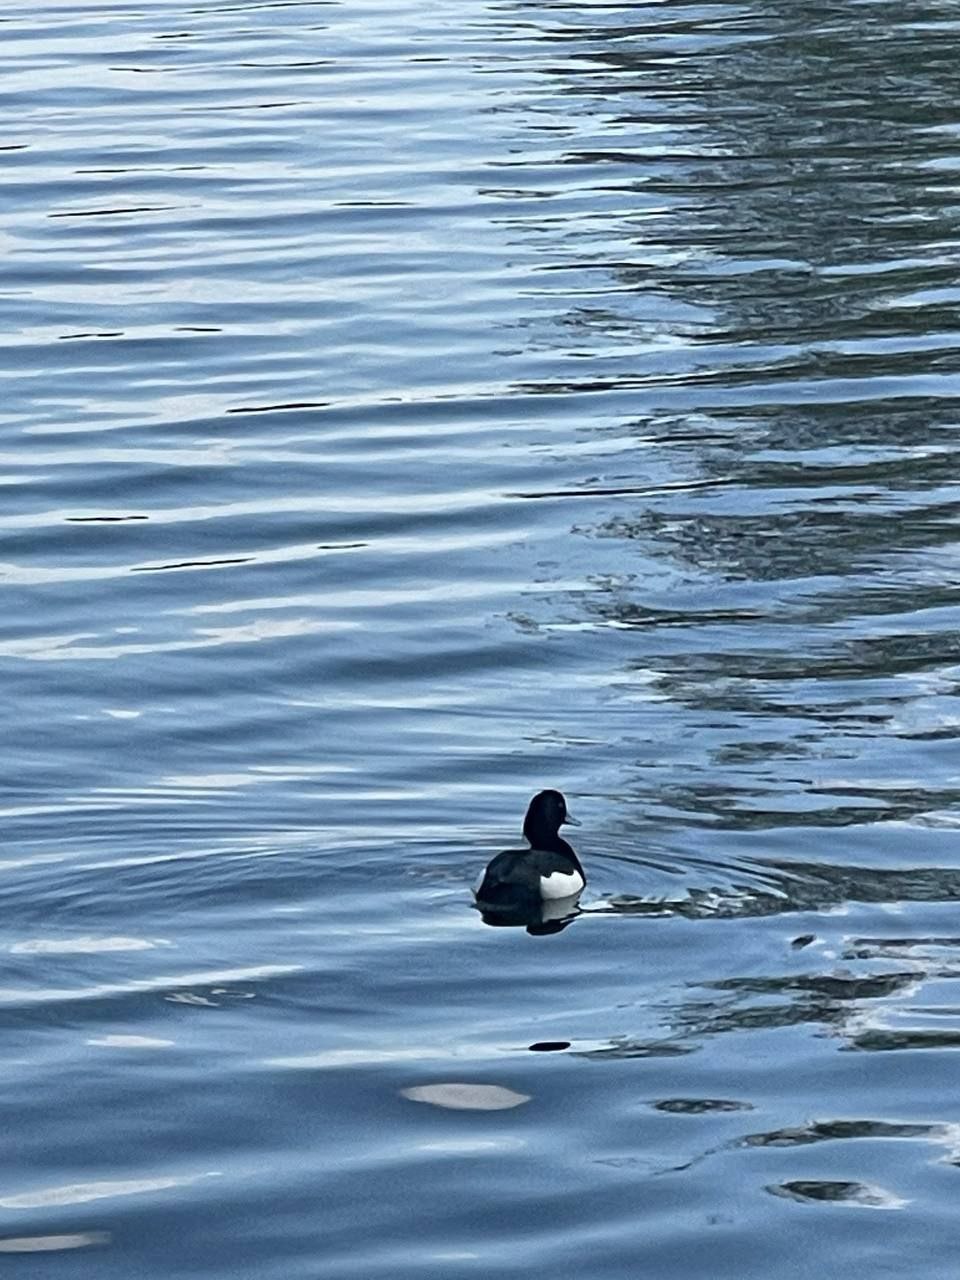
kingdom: Animalia
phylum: Chordata
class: Aves
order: Anseriformes
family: Anatidae
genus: Aythya
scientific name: Aythya fuligula
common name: Tufted duck
